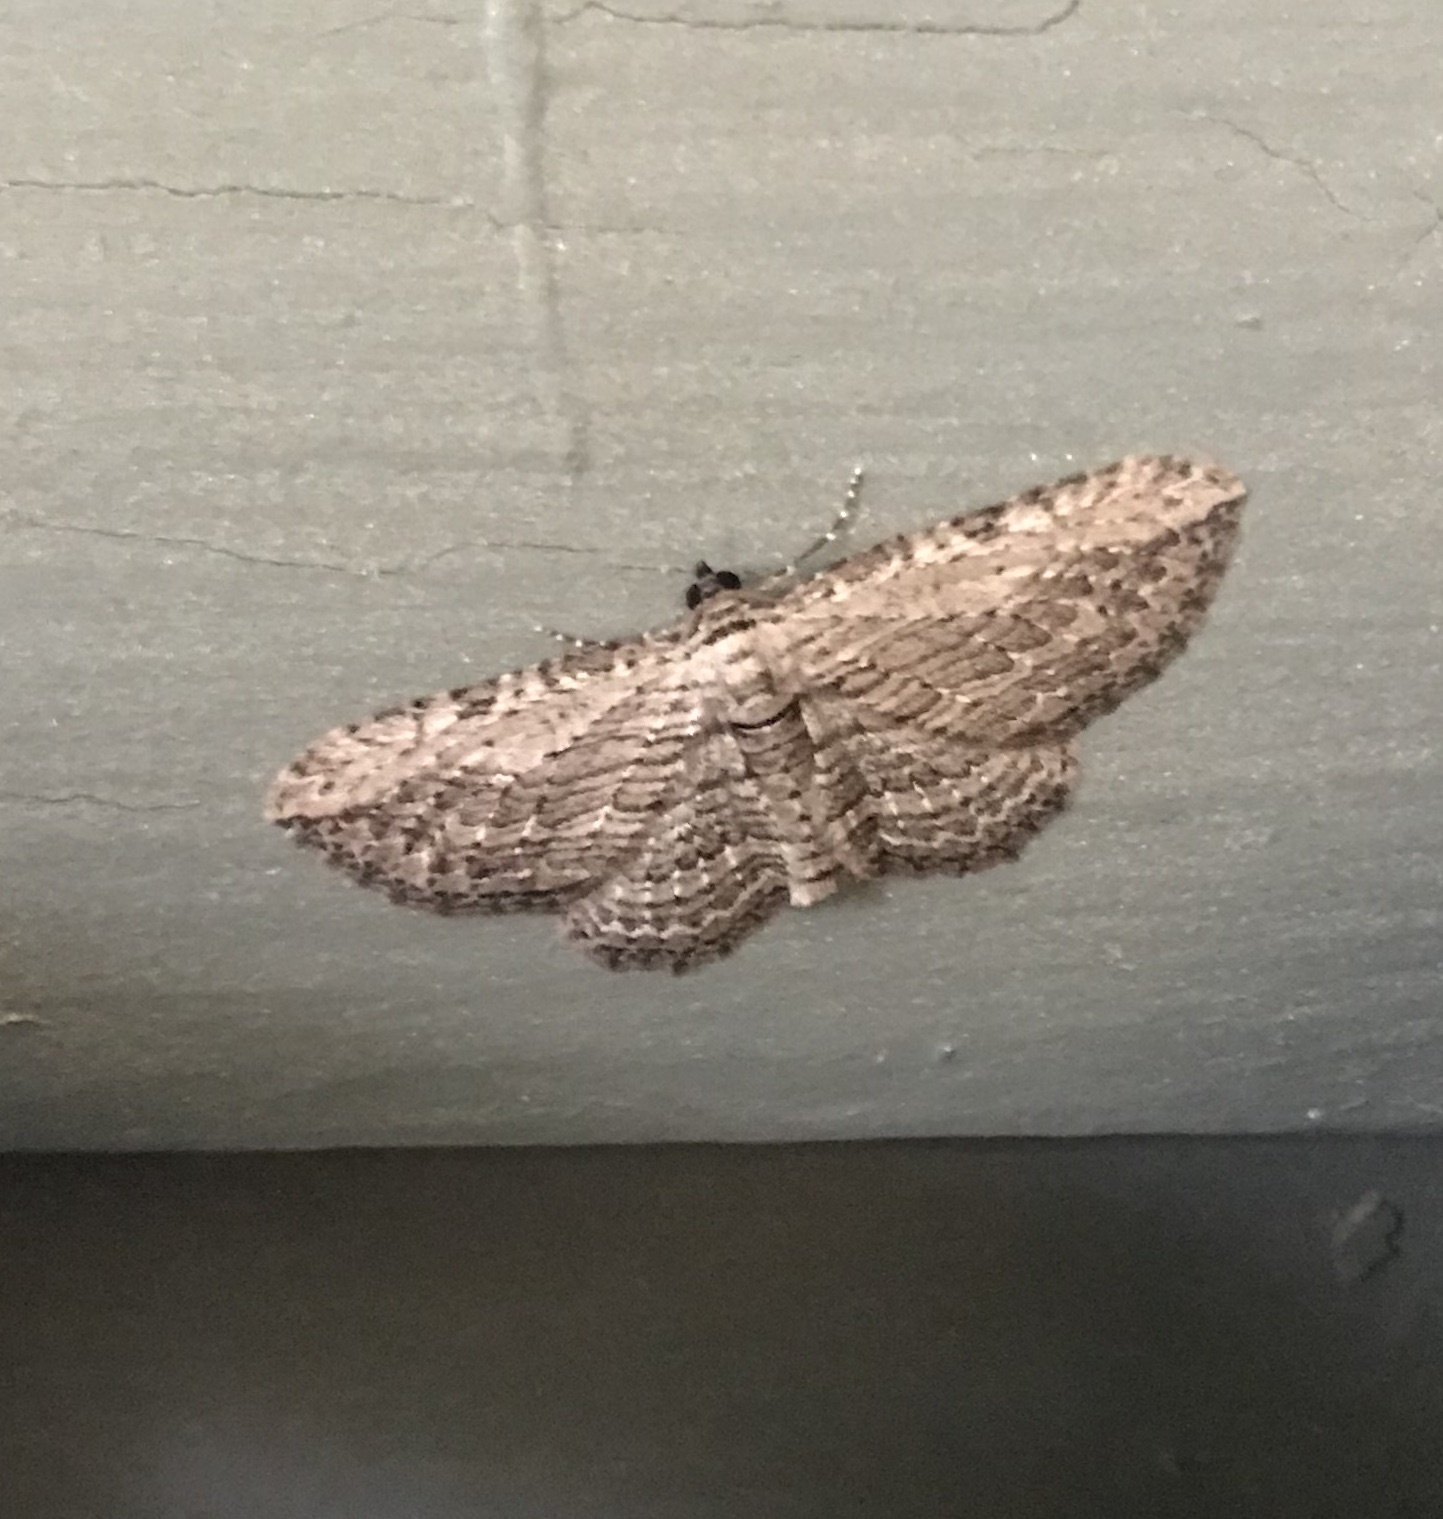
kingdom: Animalia
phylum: Arthropoda
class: Insecta
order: Lepidoptera
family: Geometridae
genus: Horisme
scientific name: Horisme intestinata
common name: Brown bark carpet
